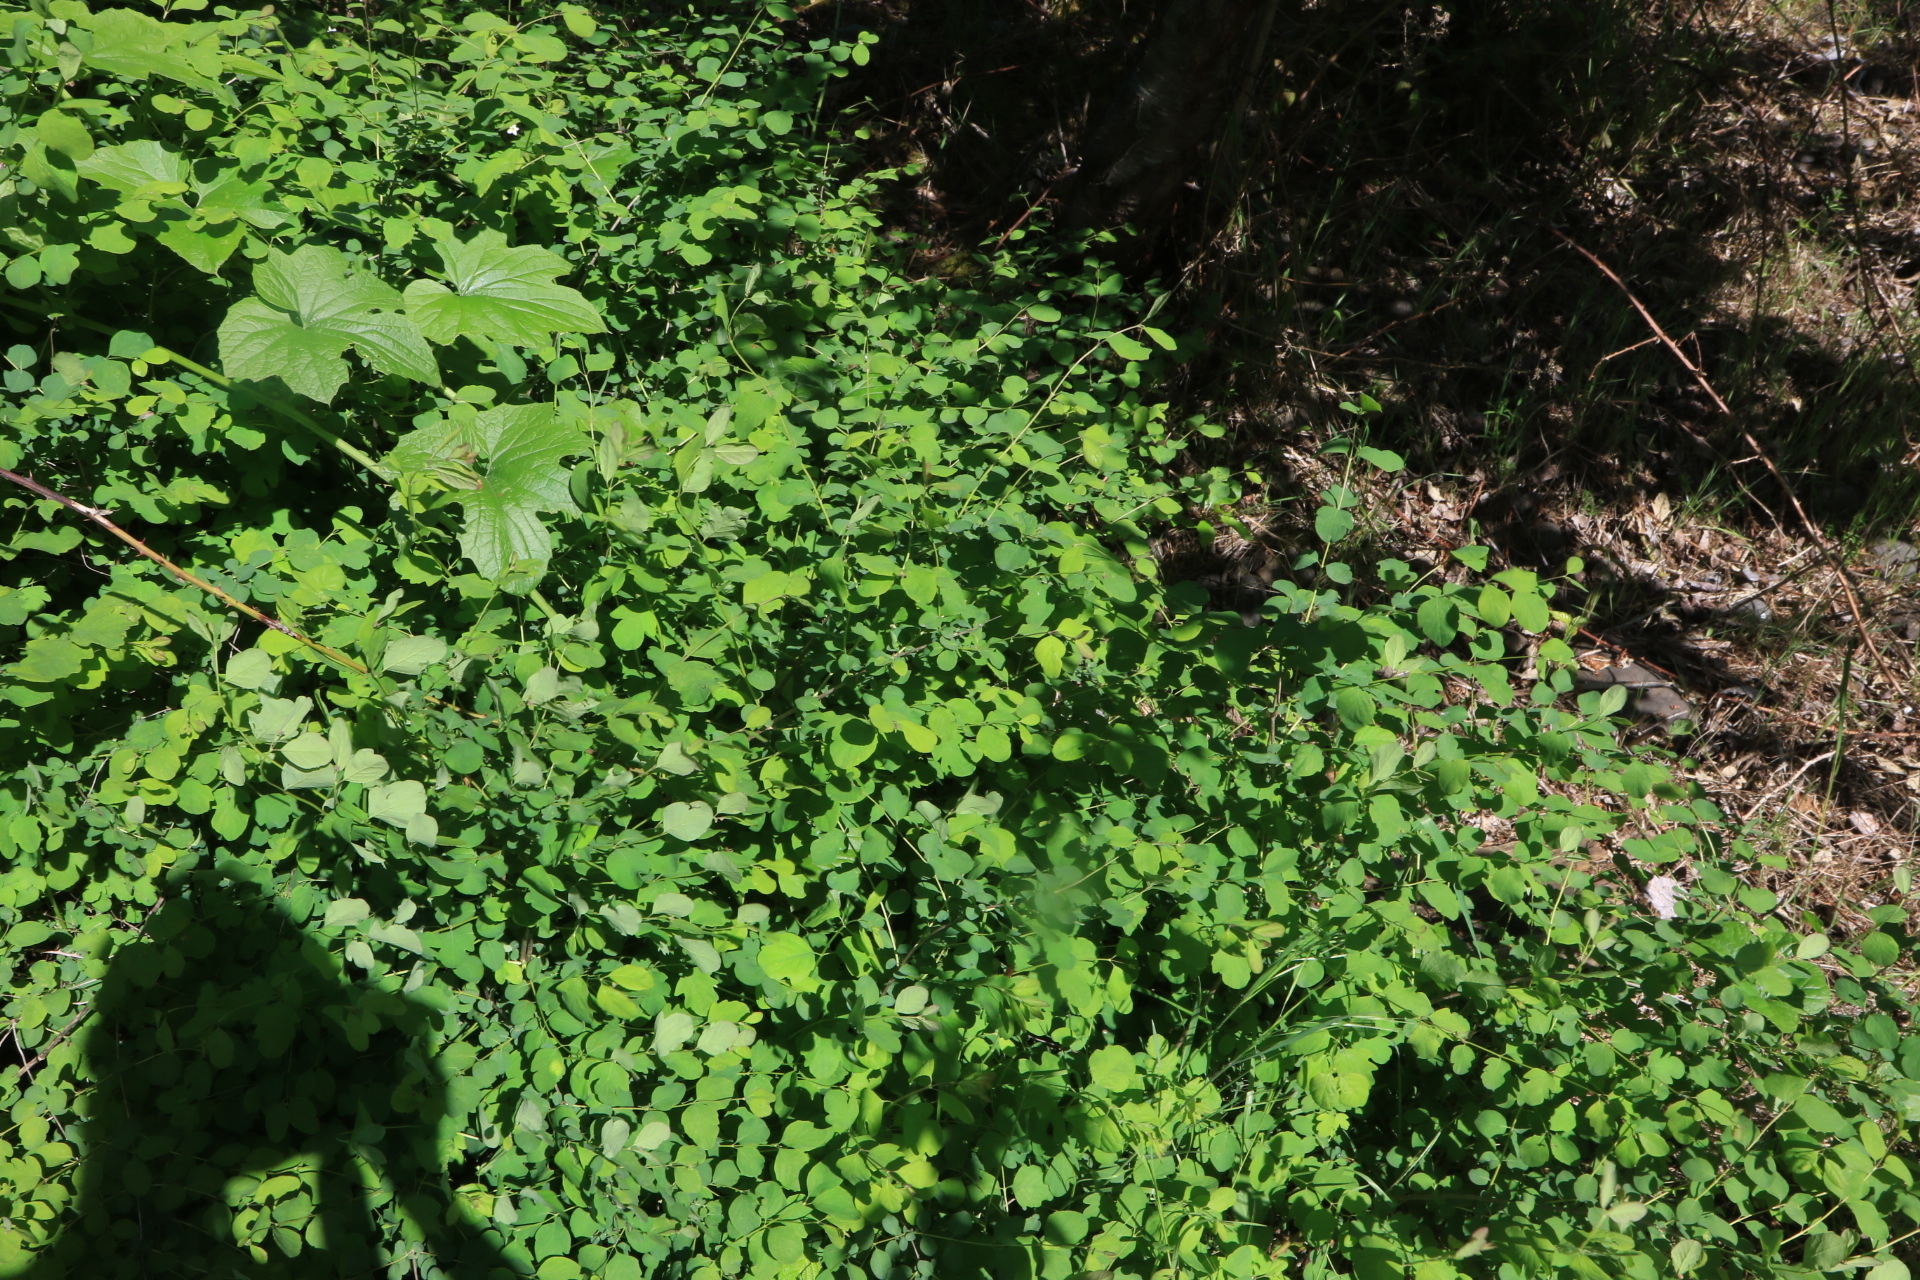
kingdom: Plantae
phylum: Tracheophyta
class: Magnoliopsida
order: Dipsacales
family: Caprifoliaceae
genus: Symphoricarpos
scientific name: Symphoricarpos albus
